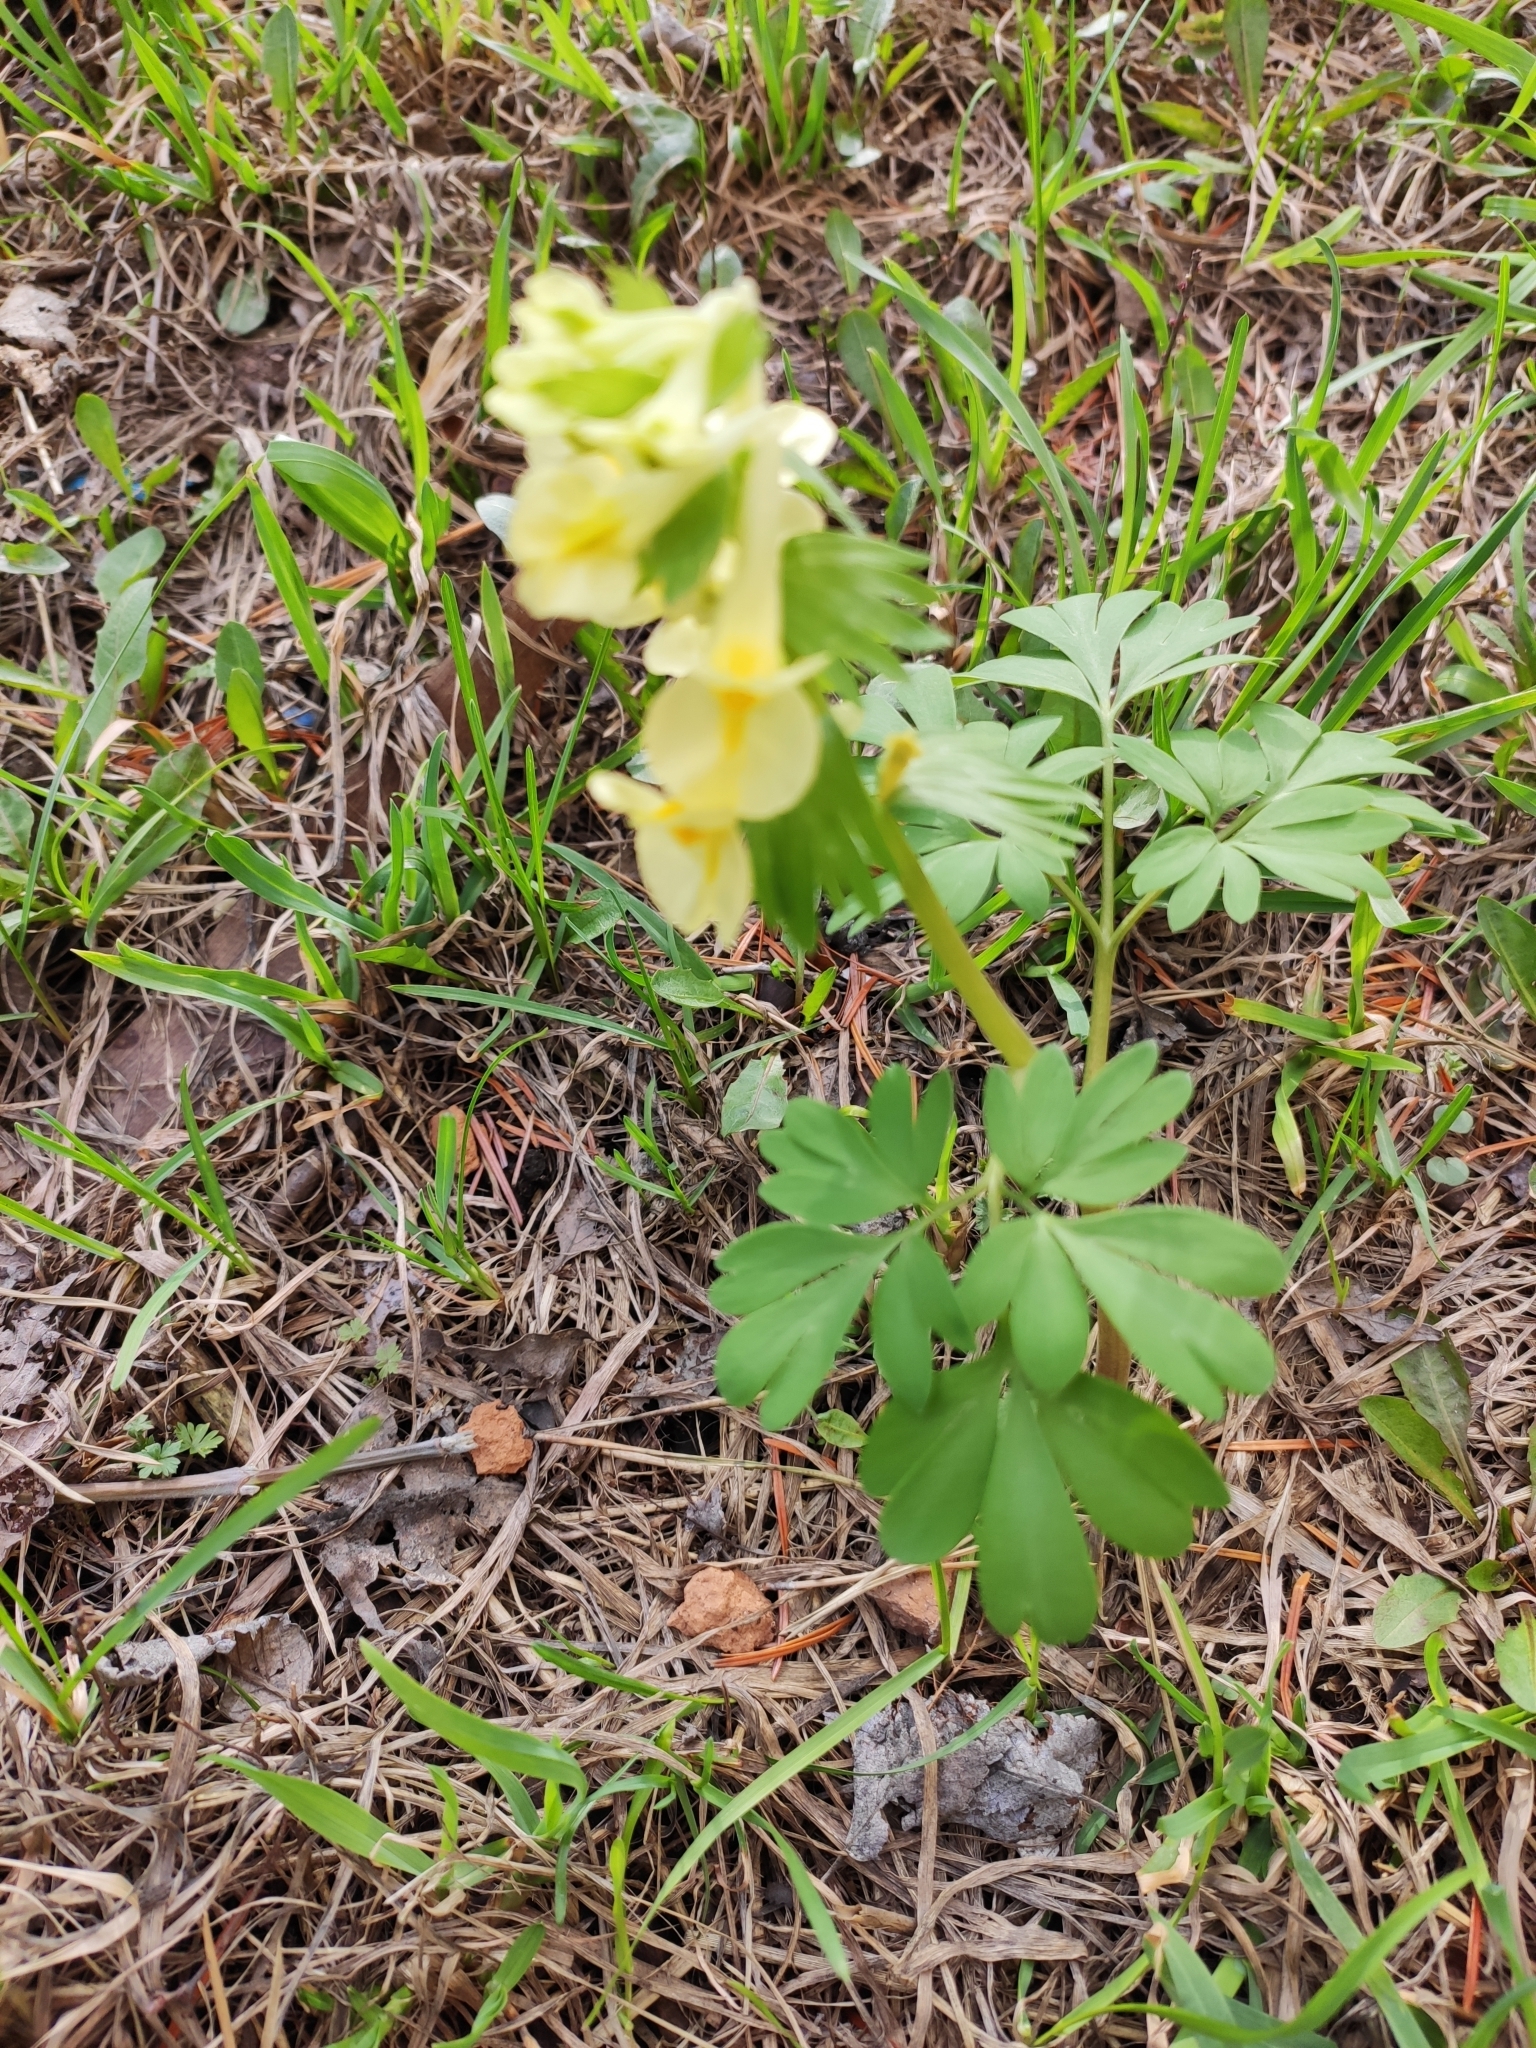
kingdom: Plantae
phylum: Tracheophyta
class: Magnoliopsida
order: Ranunculales
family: Papaveraceae
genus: Corydalis
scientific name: Corydalis bracteata
